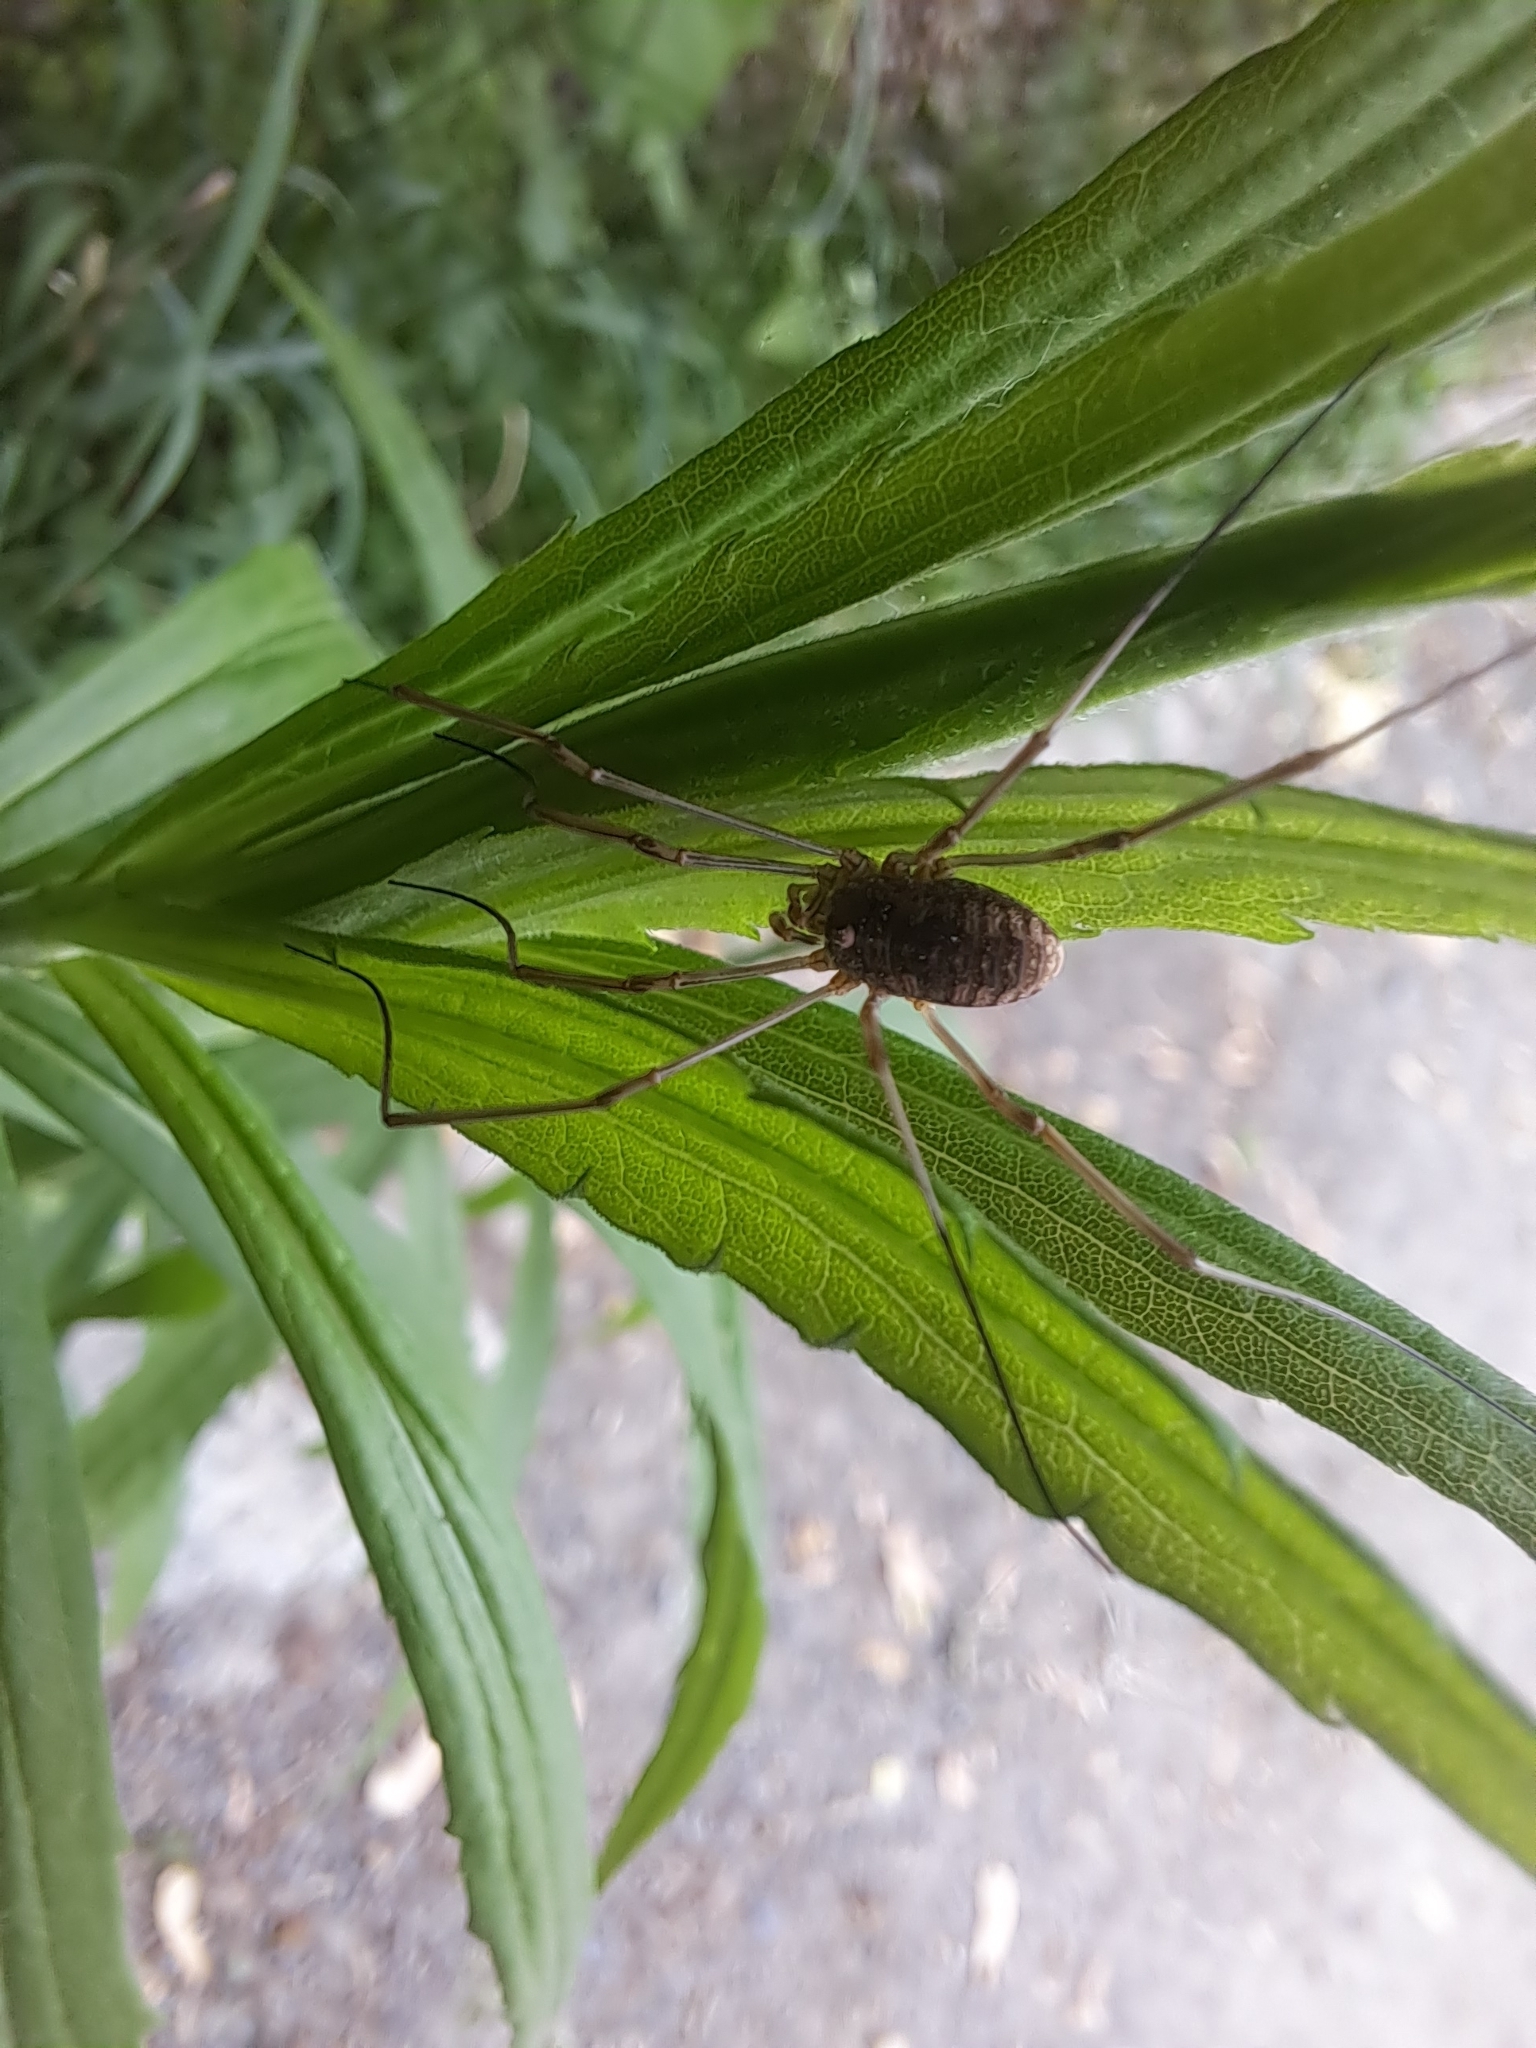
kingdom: Animalia
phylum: Arthropoda
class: Arachnida
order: Opiliones
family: Phalangiidae
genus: Phalangium
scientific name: Phalangium opilio
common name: Daddy longleg
